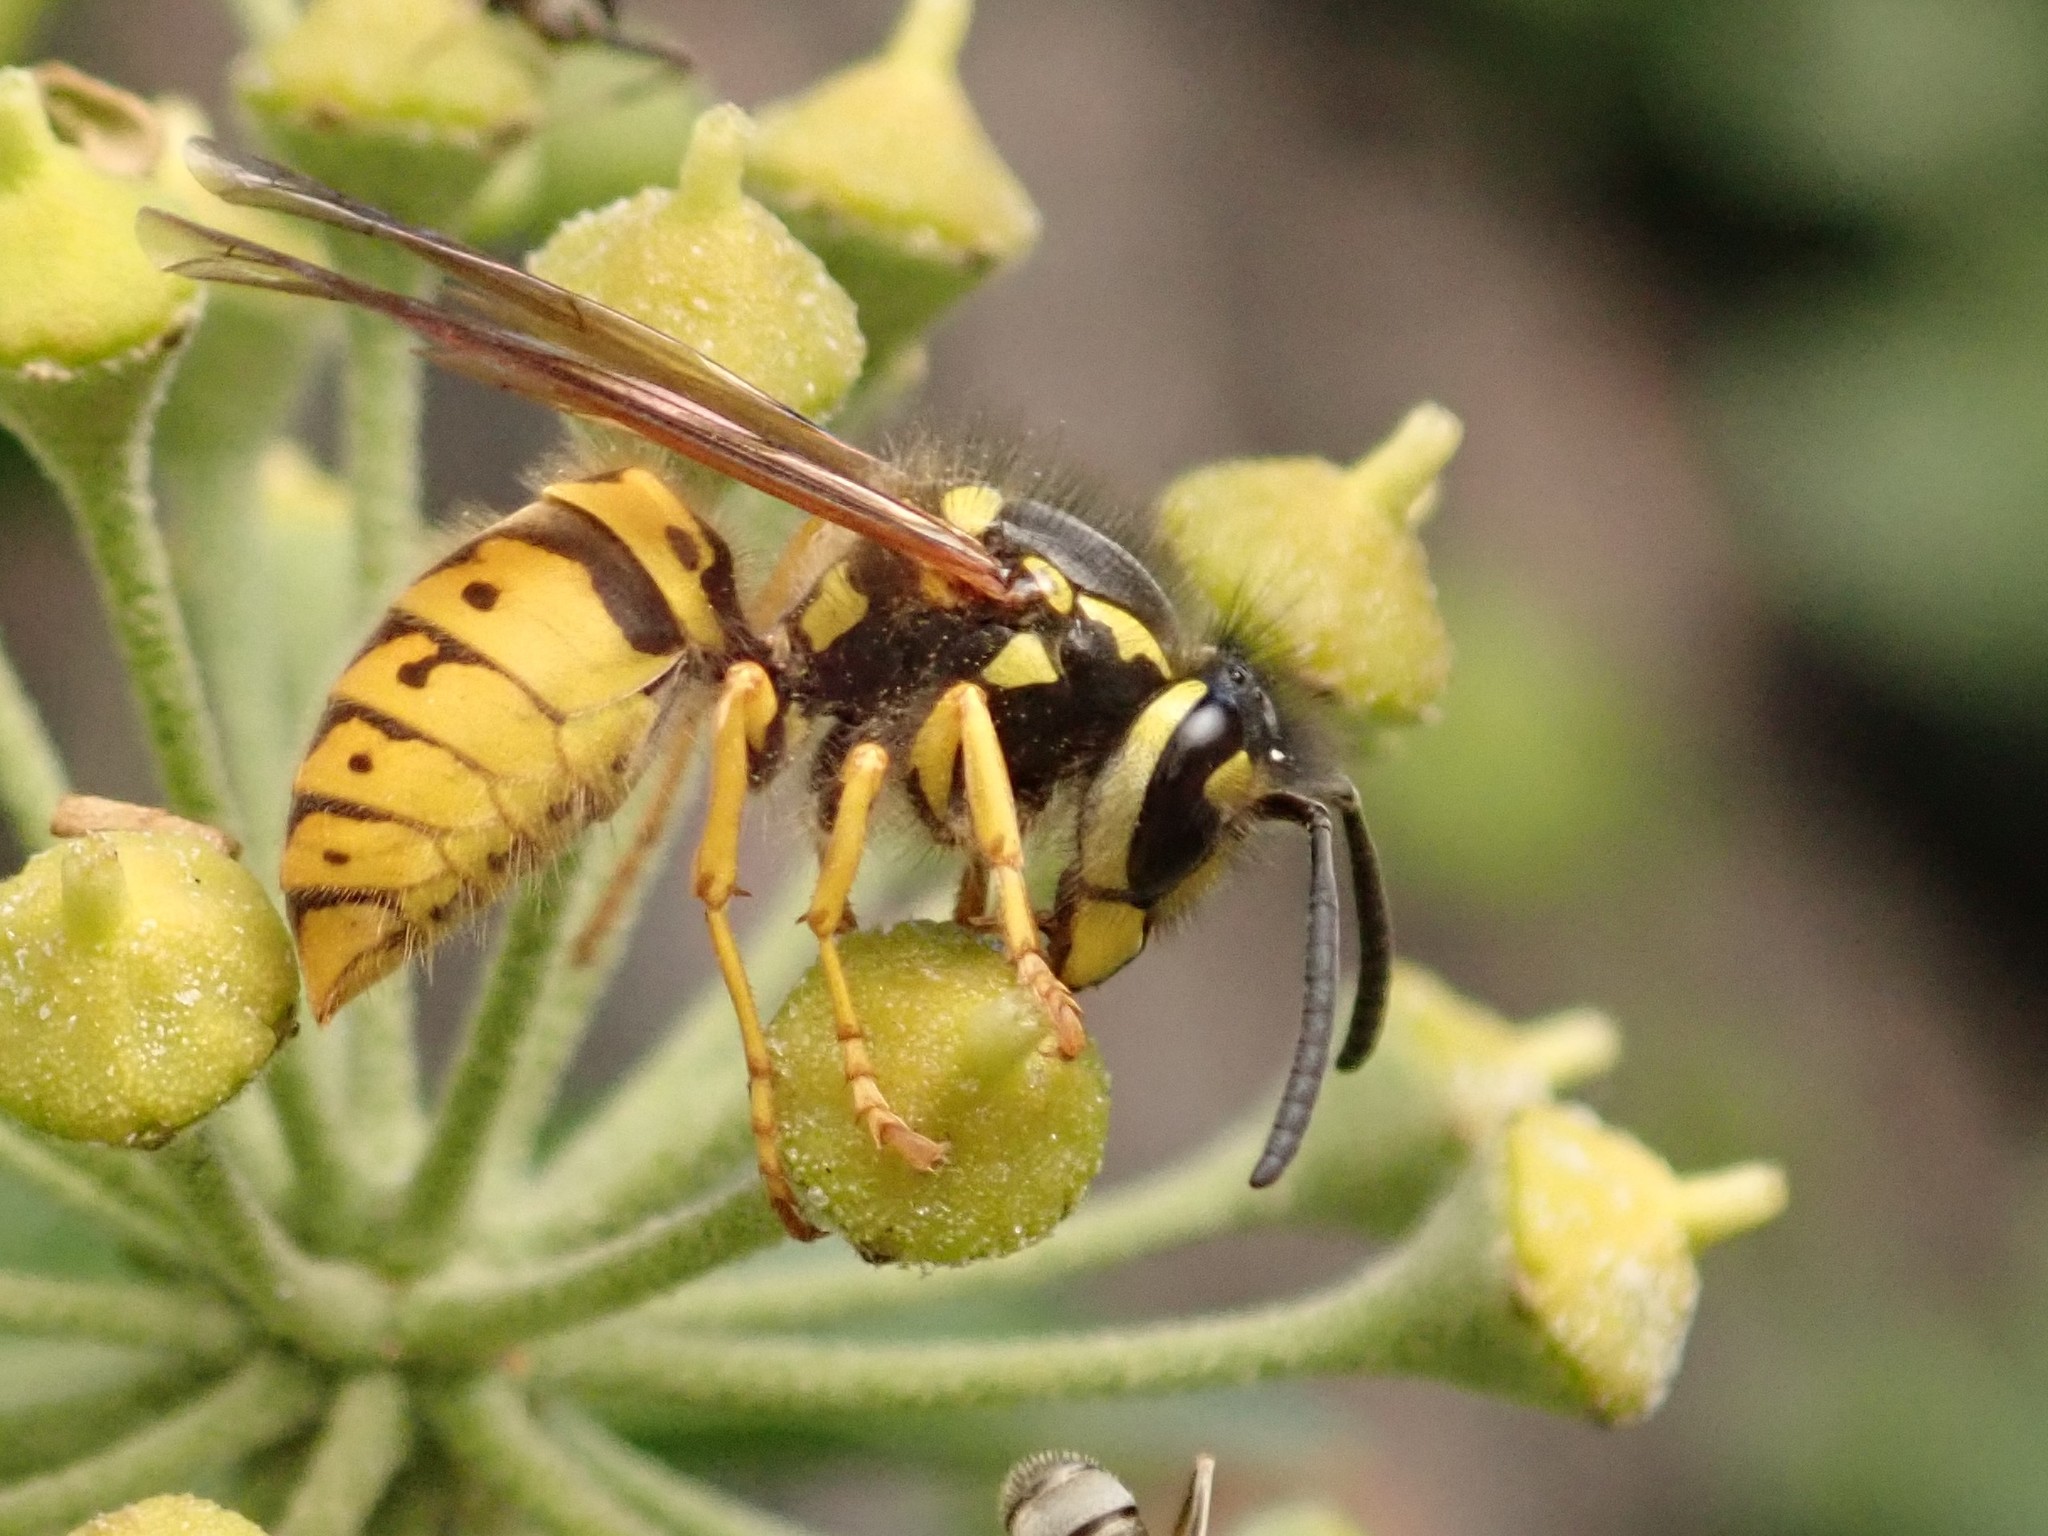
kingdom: Animalia
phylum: Arthropoda
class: Insecta
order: Hymenoptera
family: Vespidae
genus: Vespula
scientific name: Vespula germanica
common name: German wasp
